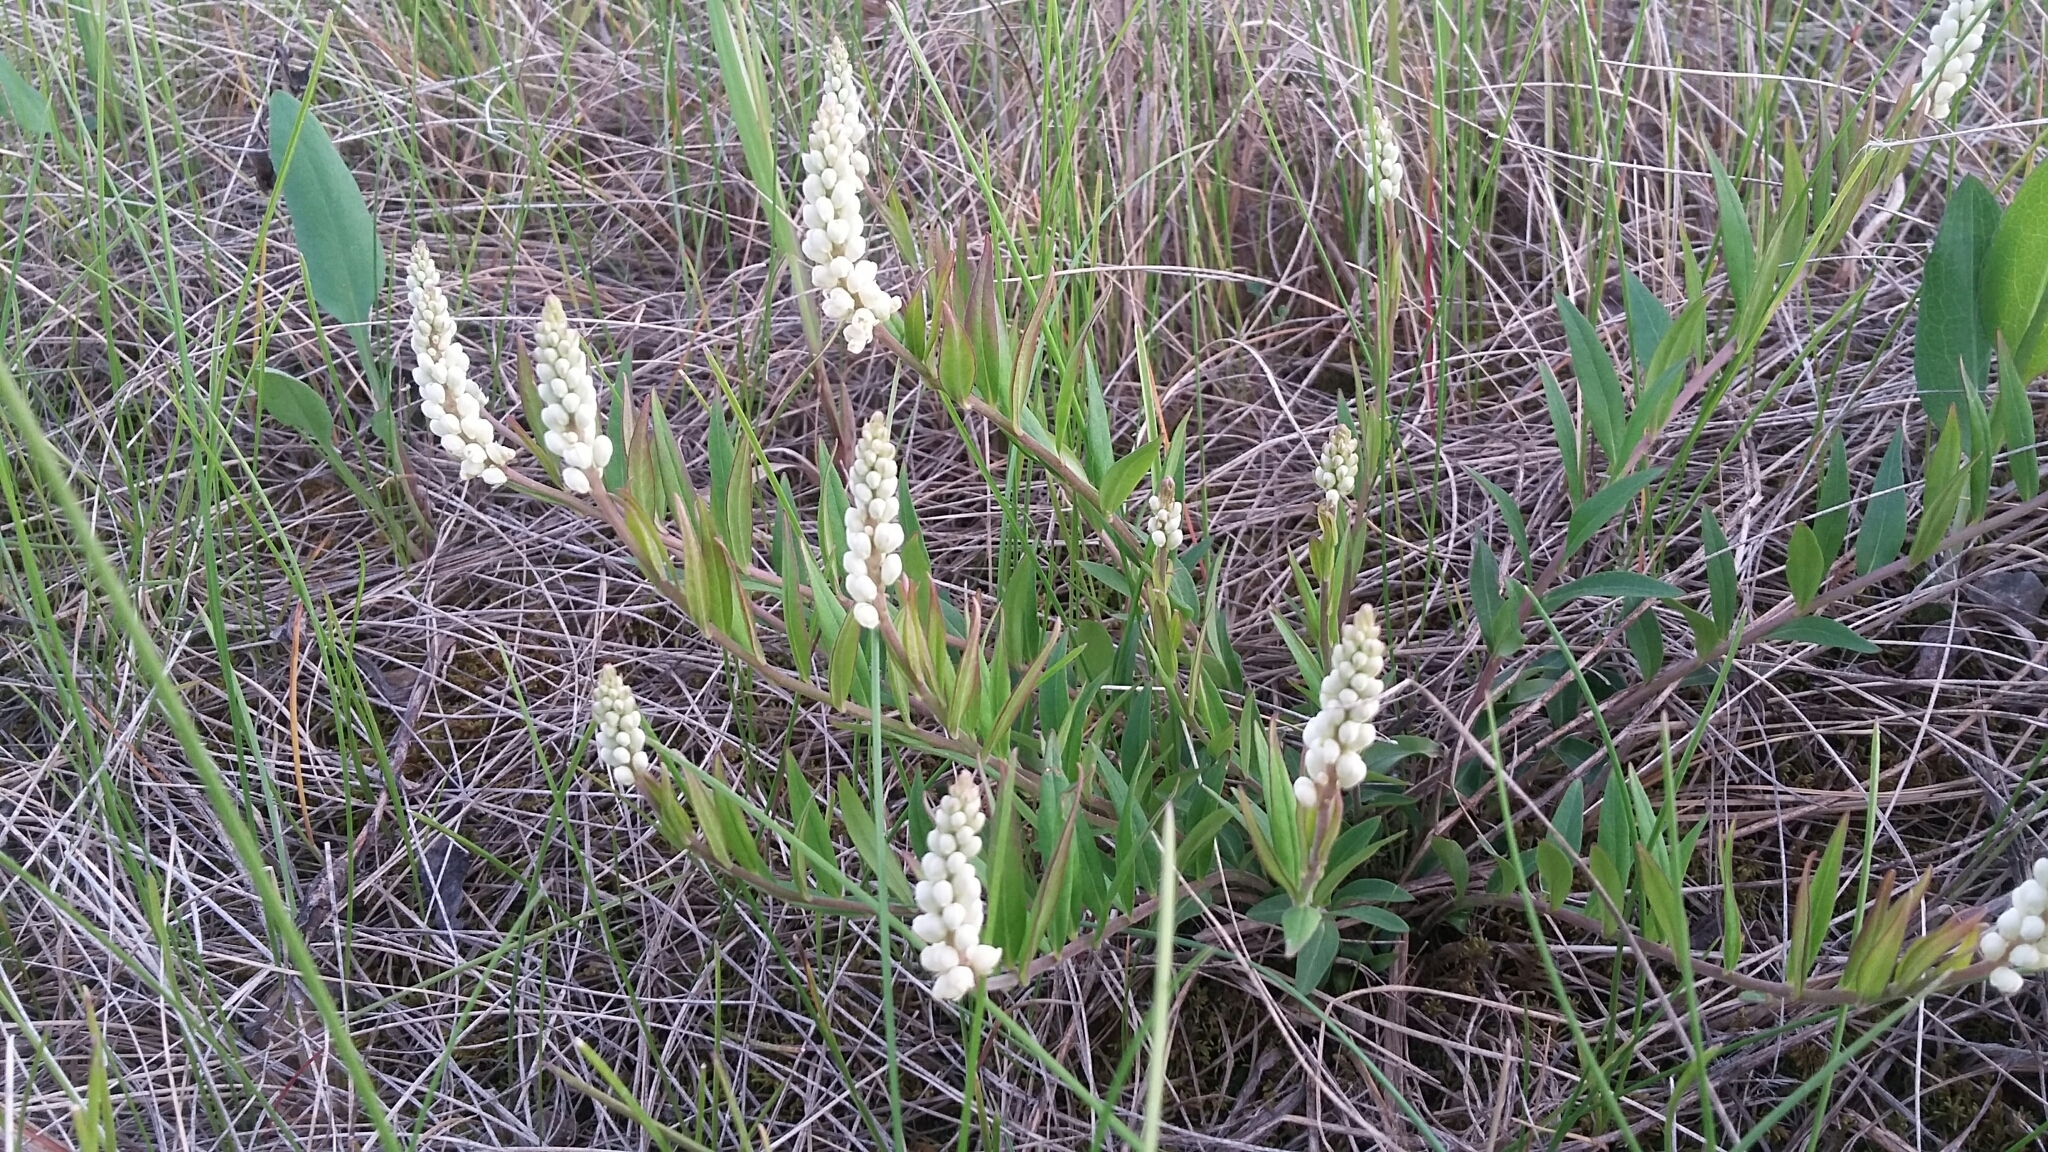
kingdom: Plantae
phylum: Tracheophyta
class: Magnoliopsida
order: Fabales
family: Polygalaceae
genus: Polygala
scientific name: Polygala senega
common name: Seneca snakeroot
